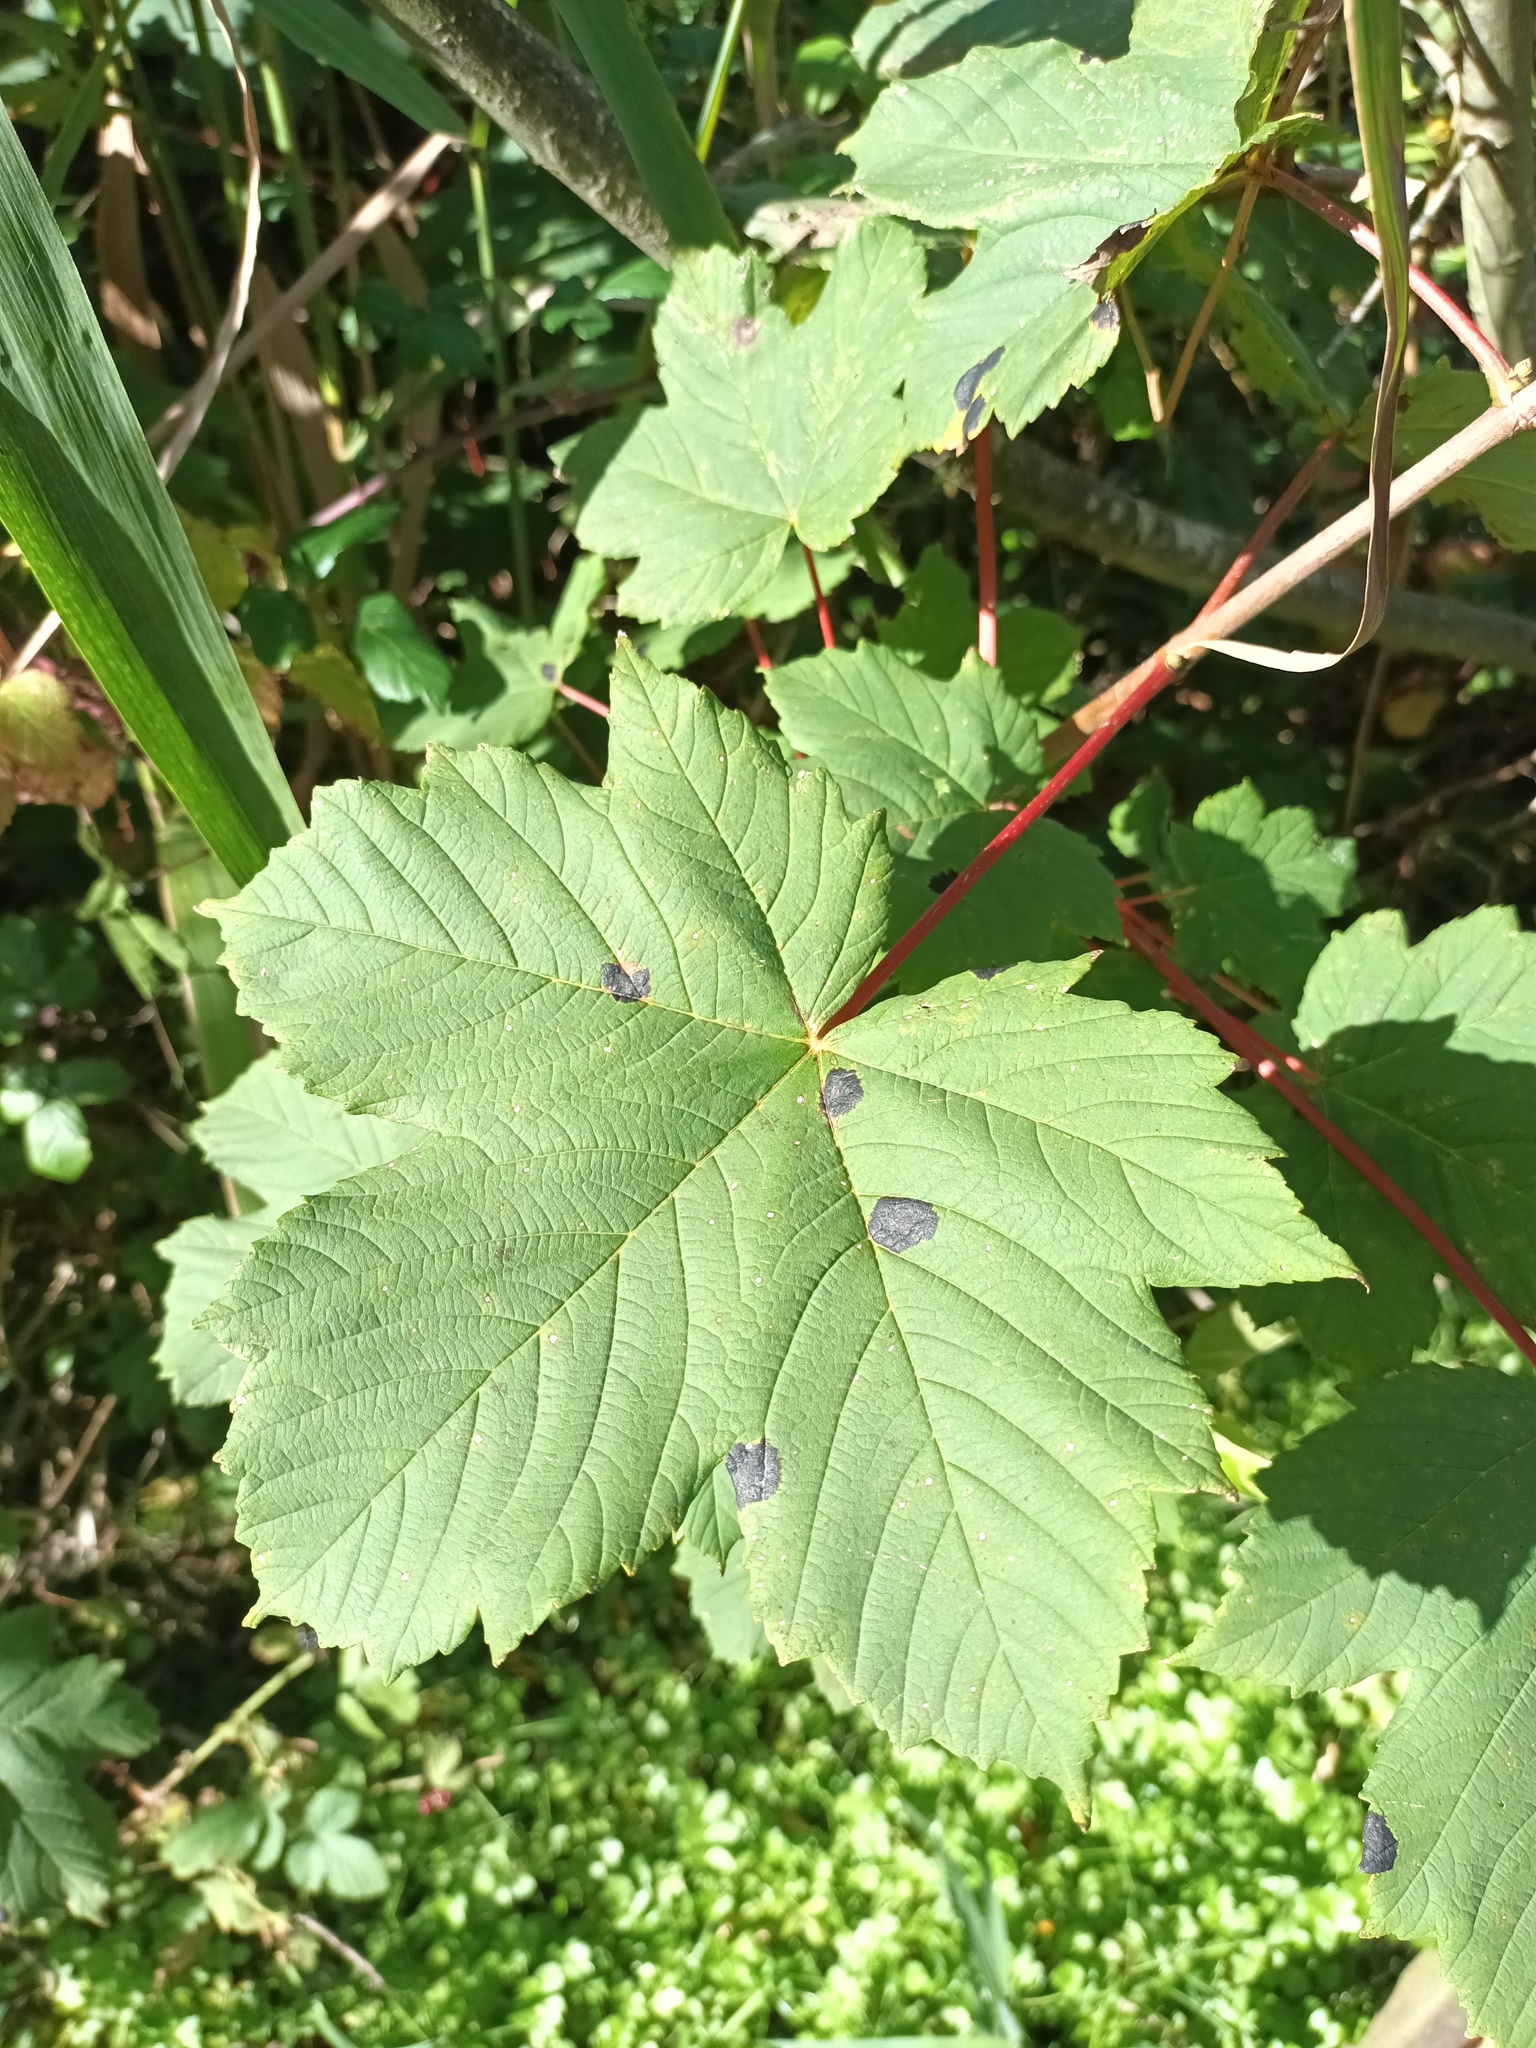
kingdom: Fungi
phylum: Ascomycota
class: Leotiomycetes
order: Rhytismatales
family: Rhytismataceae
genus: Rhytisma
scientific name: Rhytisma acerinum
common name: European tar spot
